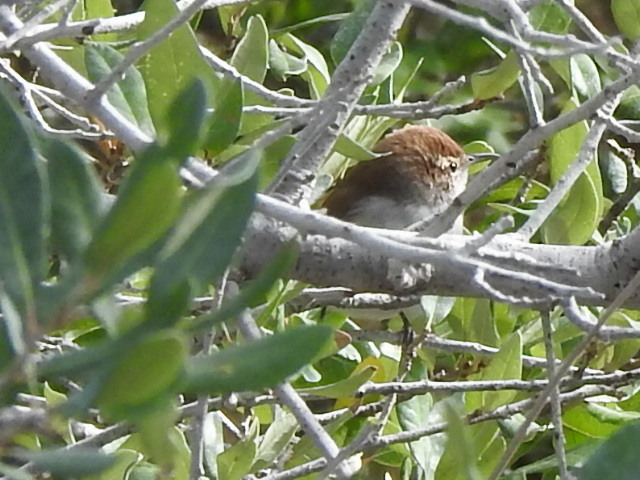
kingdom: Animalia
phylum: Chordata
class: Aves
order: Passeriformes
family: Troglodytidae
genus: Thryomanes
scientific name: Thryomanes bewickii
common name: Bewick's wren
